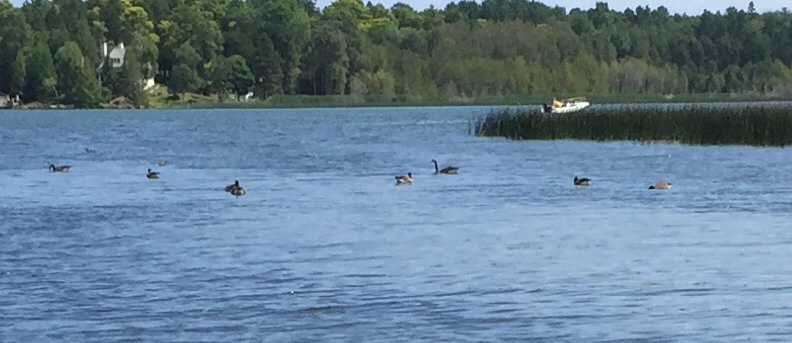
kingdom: Animalia
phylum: Chordata
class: Aves
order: Anseriformes
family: Anatidae
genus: Branta
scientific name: Branta canadensis
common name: Canada goose
